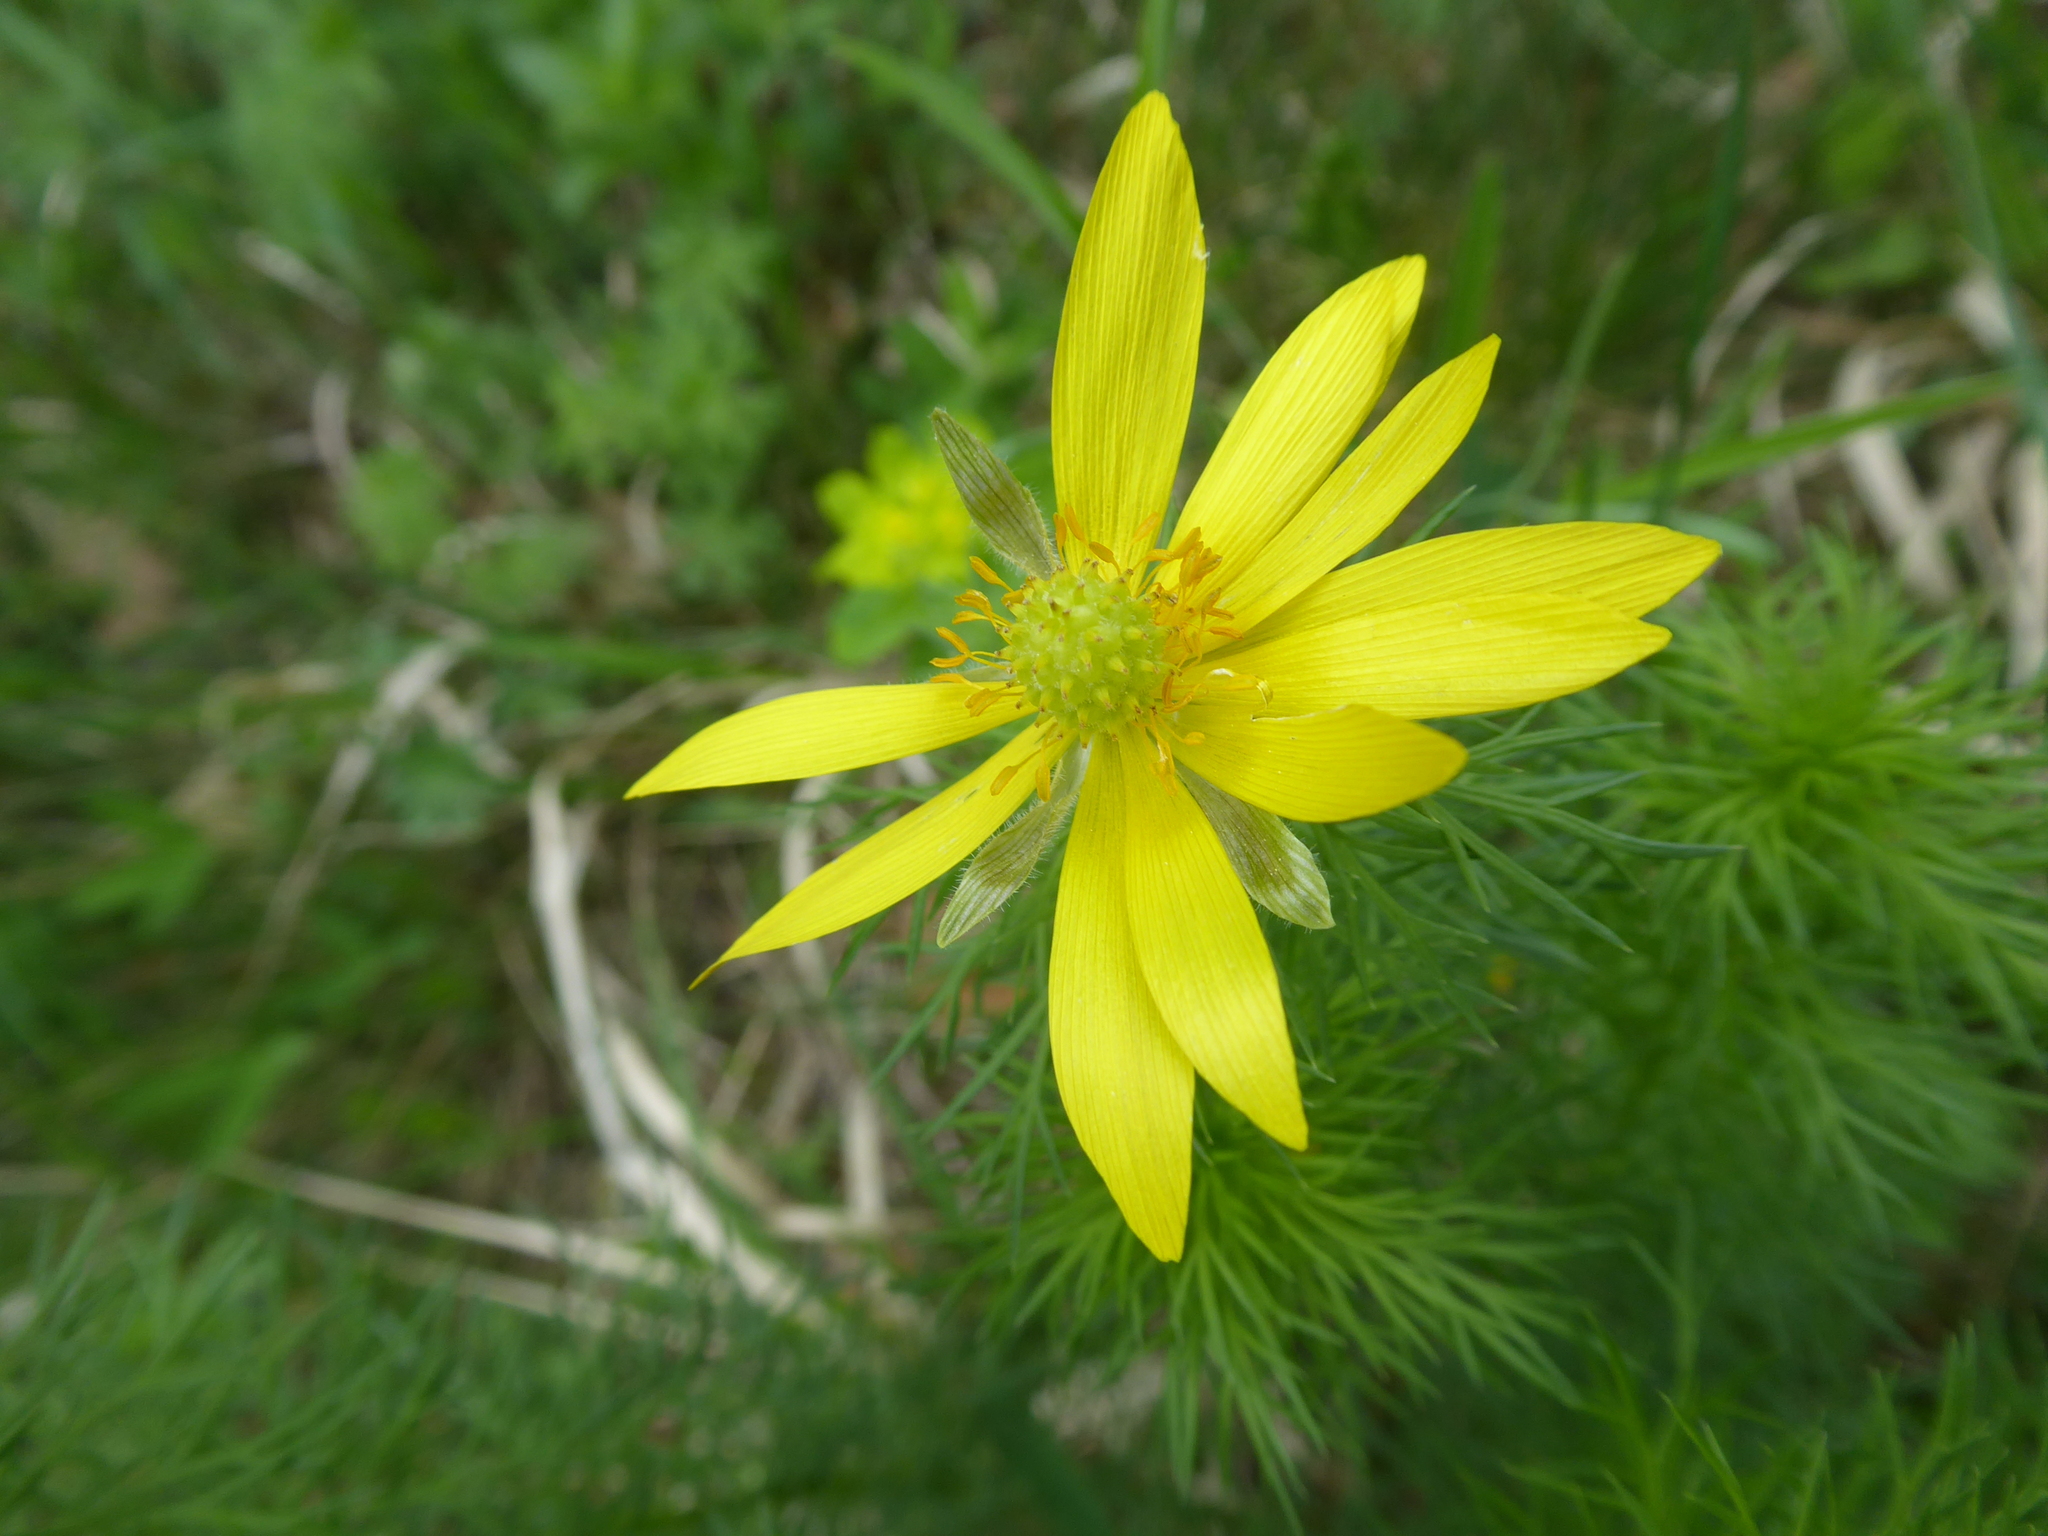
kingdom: Plantae
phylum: Tracheophyta
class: Magnoliopsida
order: Ranunculales
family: Ranunculaceae
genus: Adonis
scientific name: Adonis vernalis
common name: Yellow pheasants-eye
